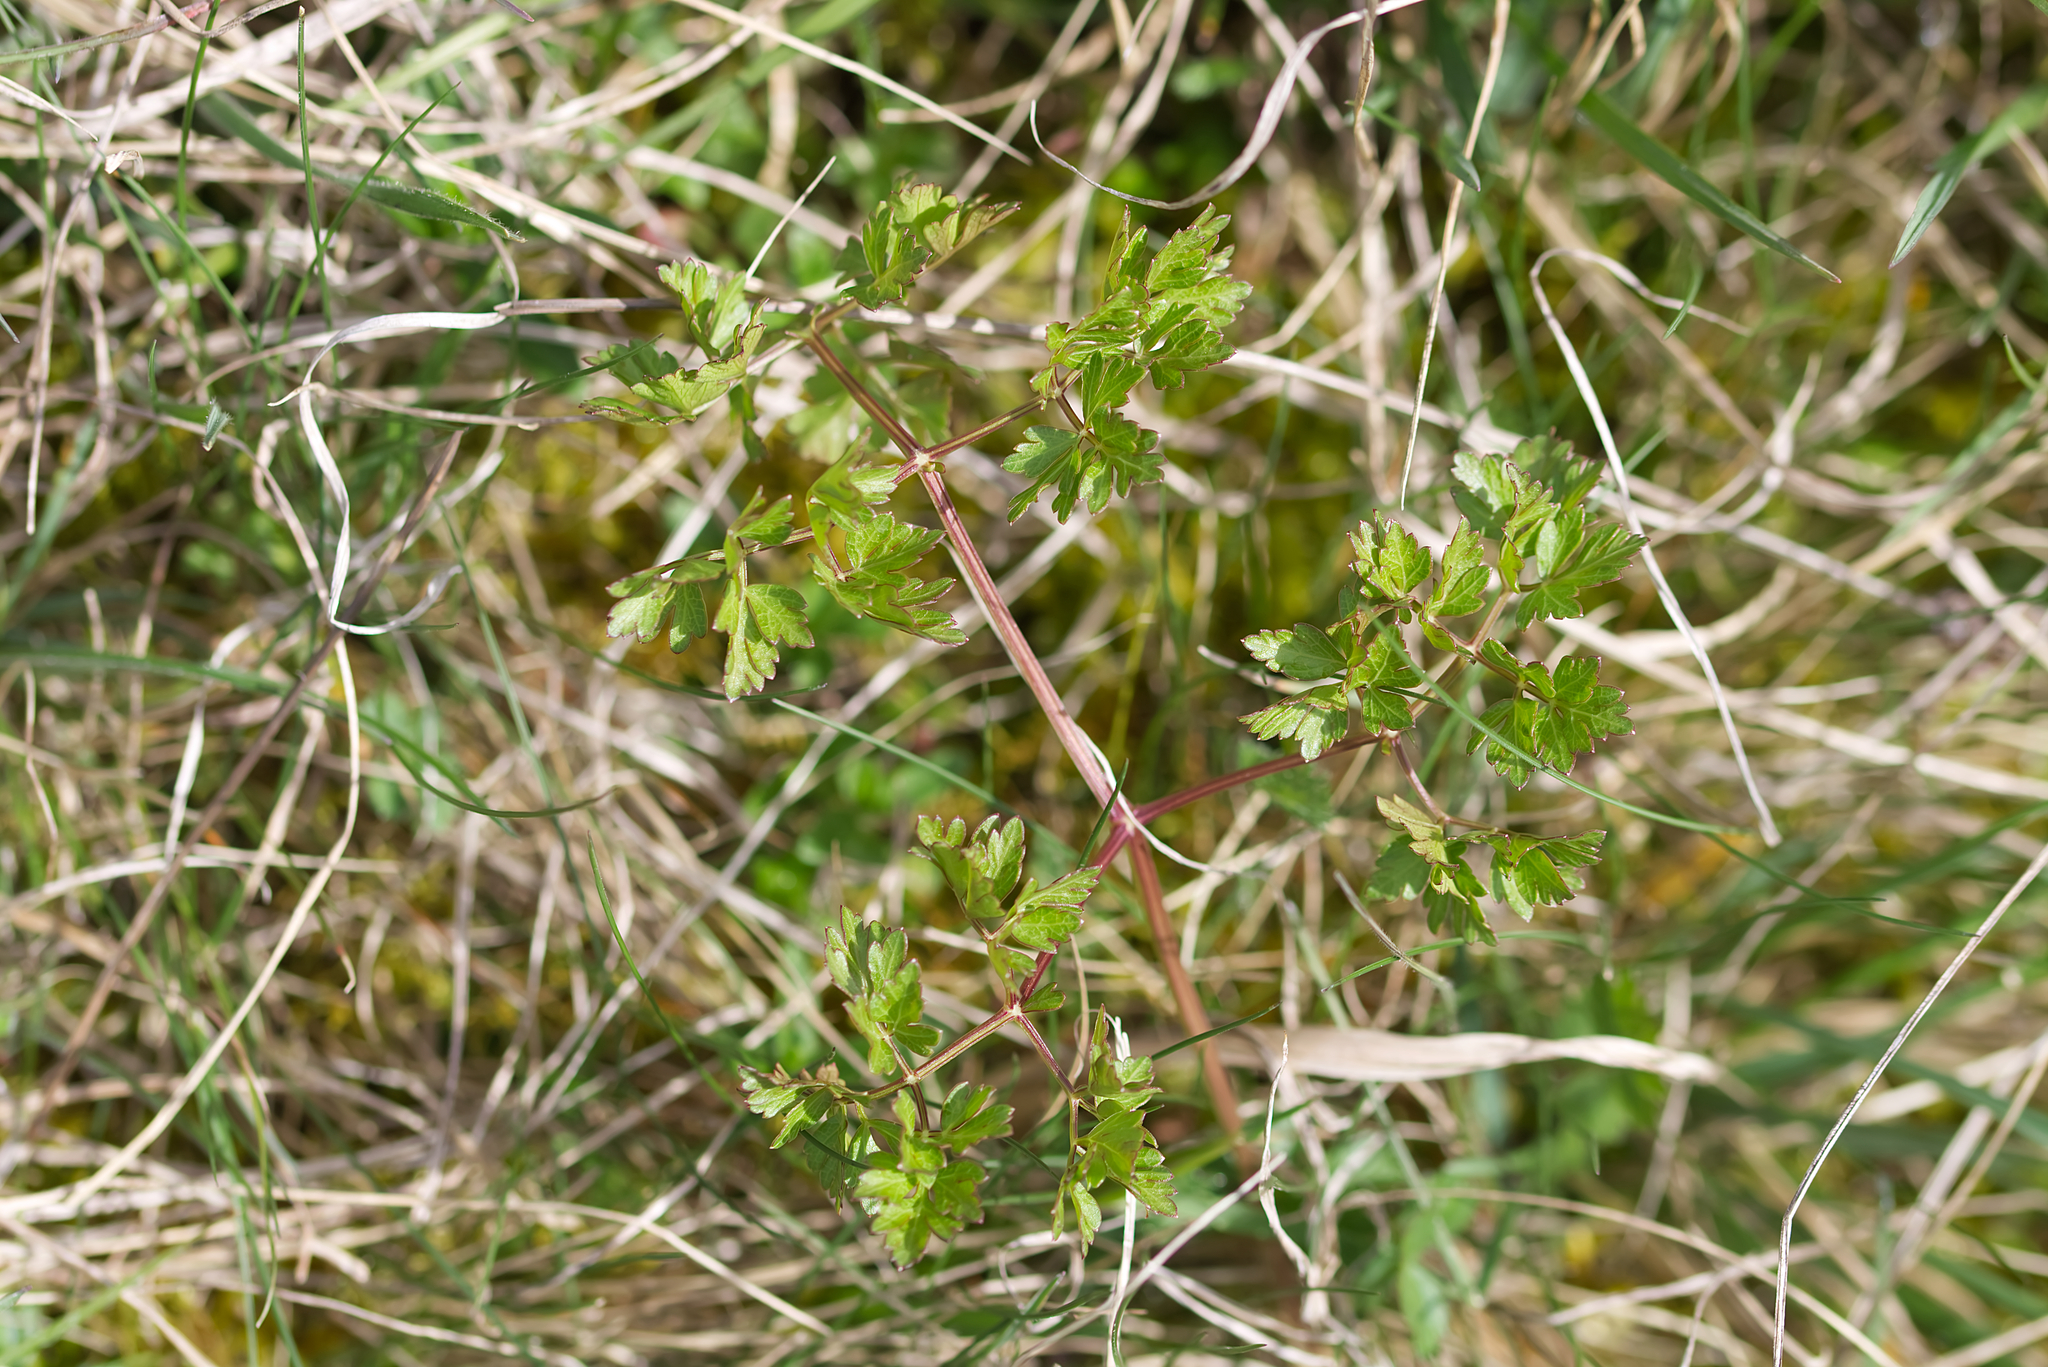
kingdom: Plantae
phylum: Tracheophyta
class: Magnoliopsida
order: Apiales
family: Apiaceae
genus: Oreoselinum
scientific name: Oreoselinum nigrum
